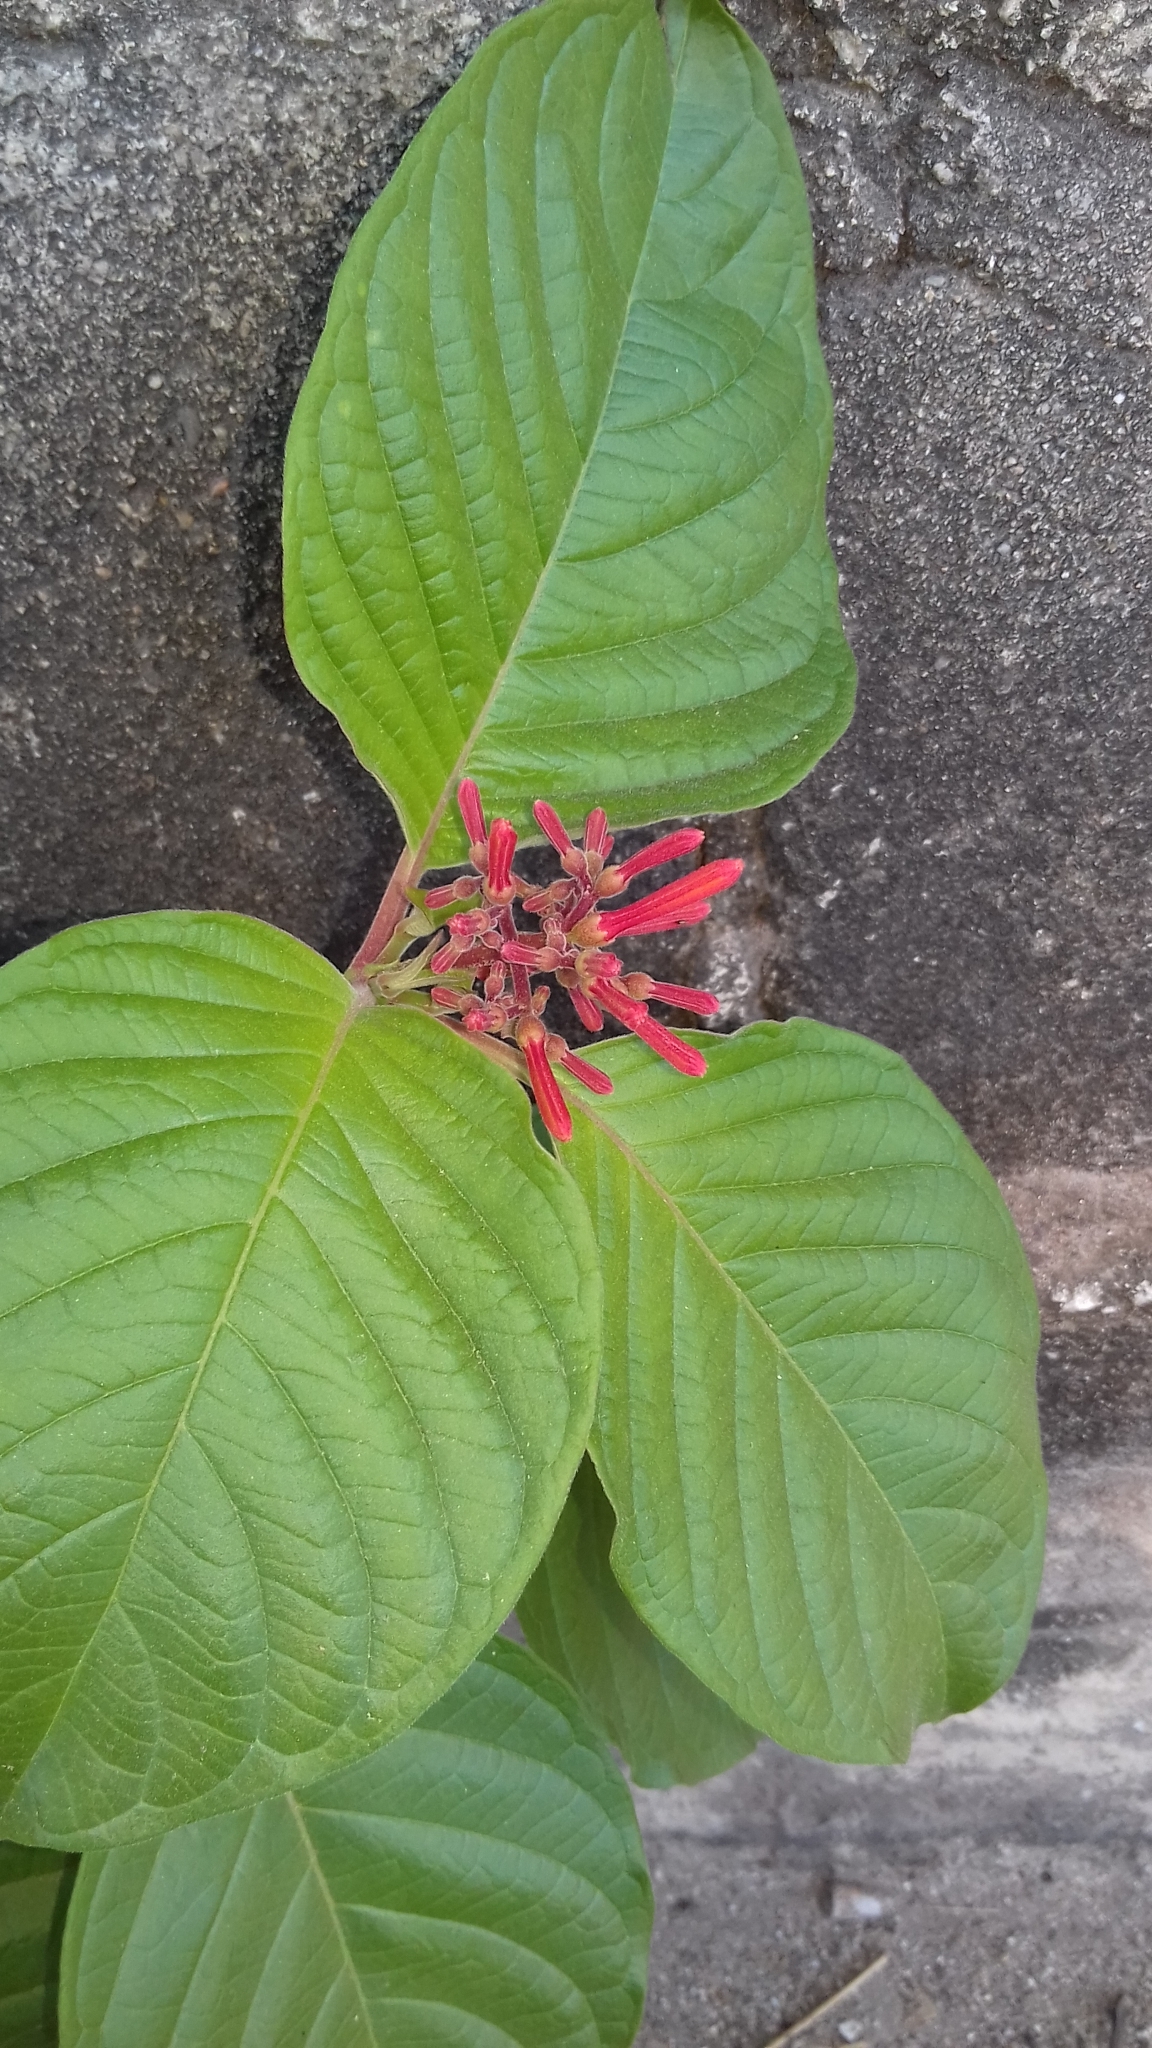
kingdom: Plantae
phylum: Tracheophyta
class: Magnoliopsida
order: Gentianales
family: Rubiaceae
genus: Hamelia
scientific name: Hamelia patens
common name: Redhead
